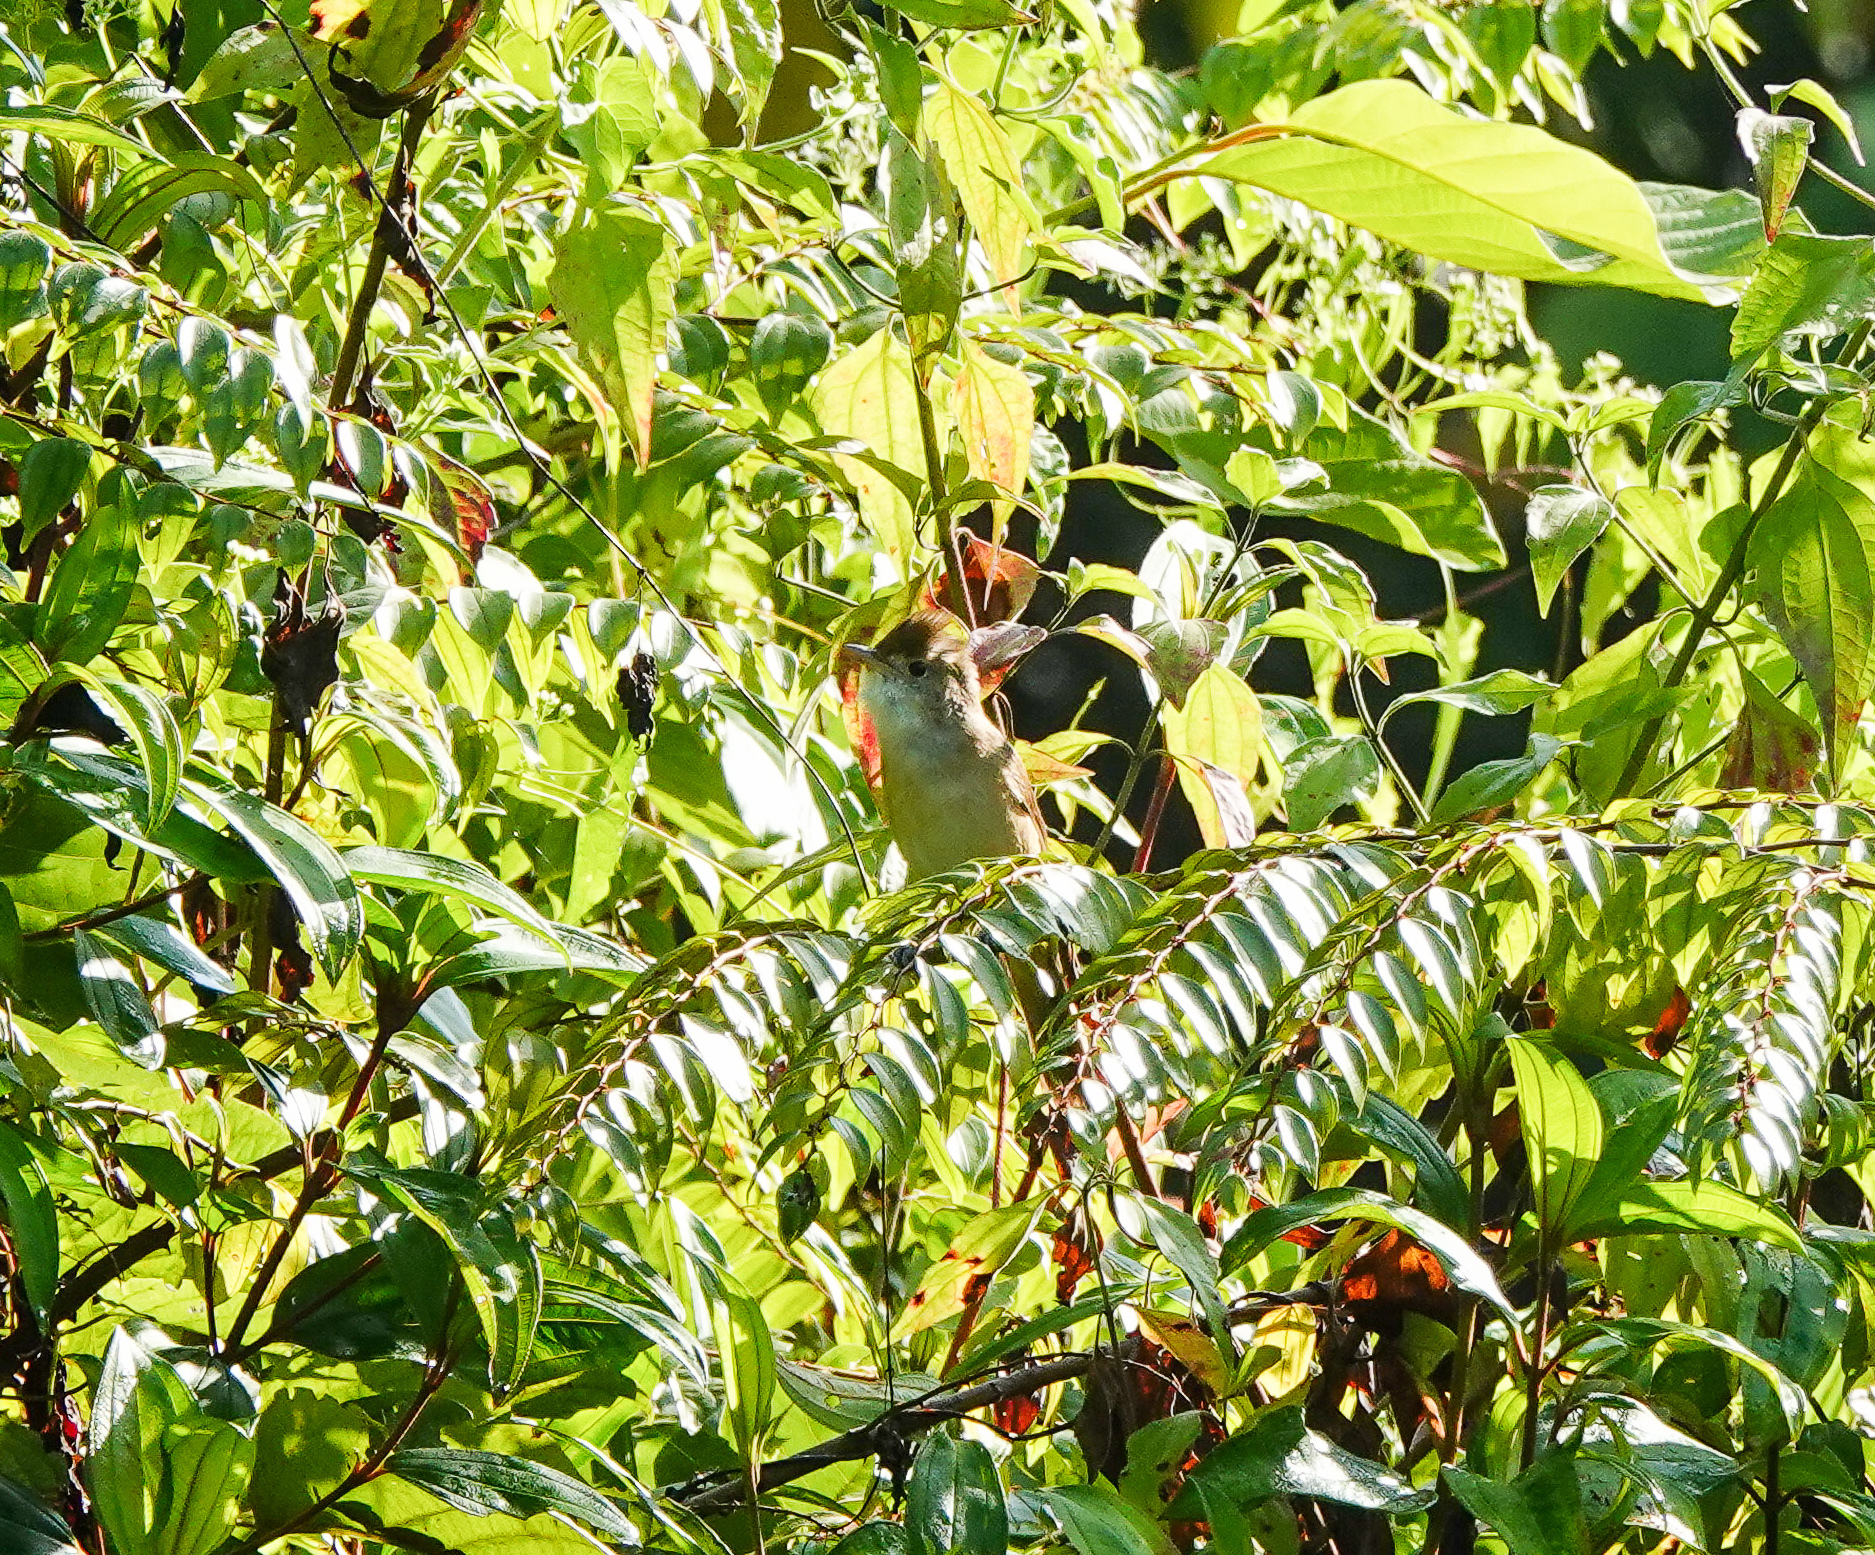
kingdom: Animalia
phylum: Chordata
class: Aves
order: Passeriformes
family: Acrocephalidae
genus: Iduna
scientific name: Iduna aedon
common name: Thick-billed warbler
